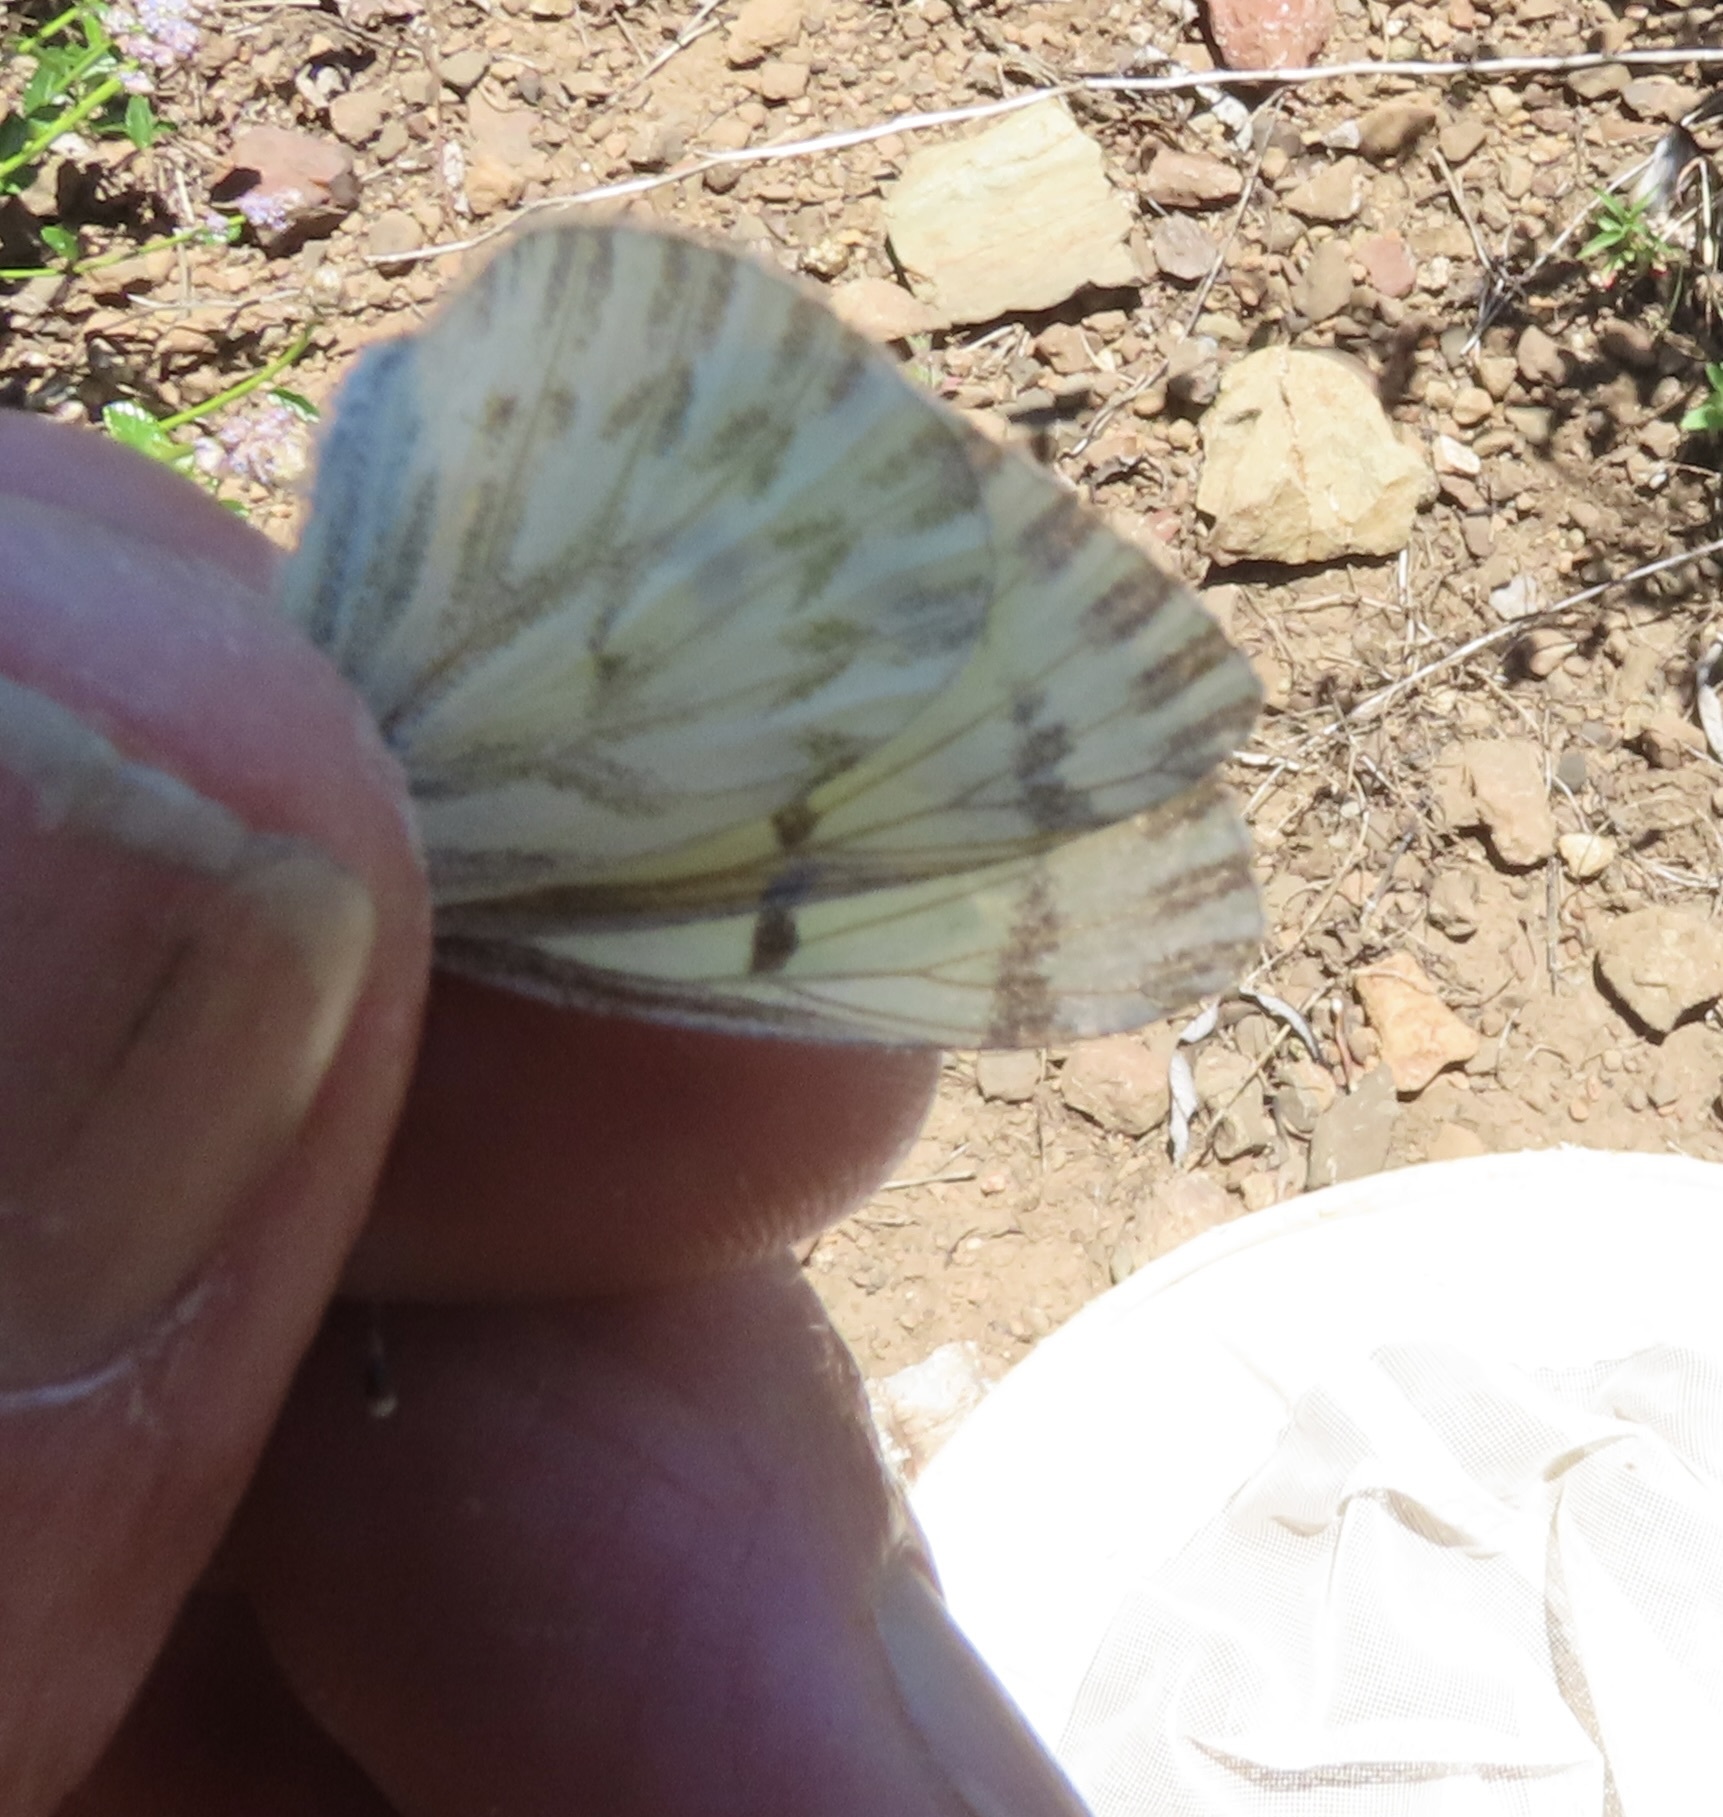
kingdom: Animalia
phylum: Arthropoda
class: Insecta
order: Lepidoptera
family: Pieridae
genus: Pontia
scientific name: Pontia sisymbrii
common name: California white
